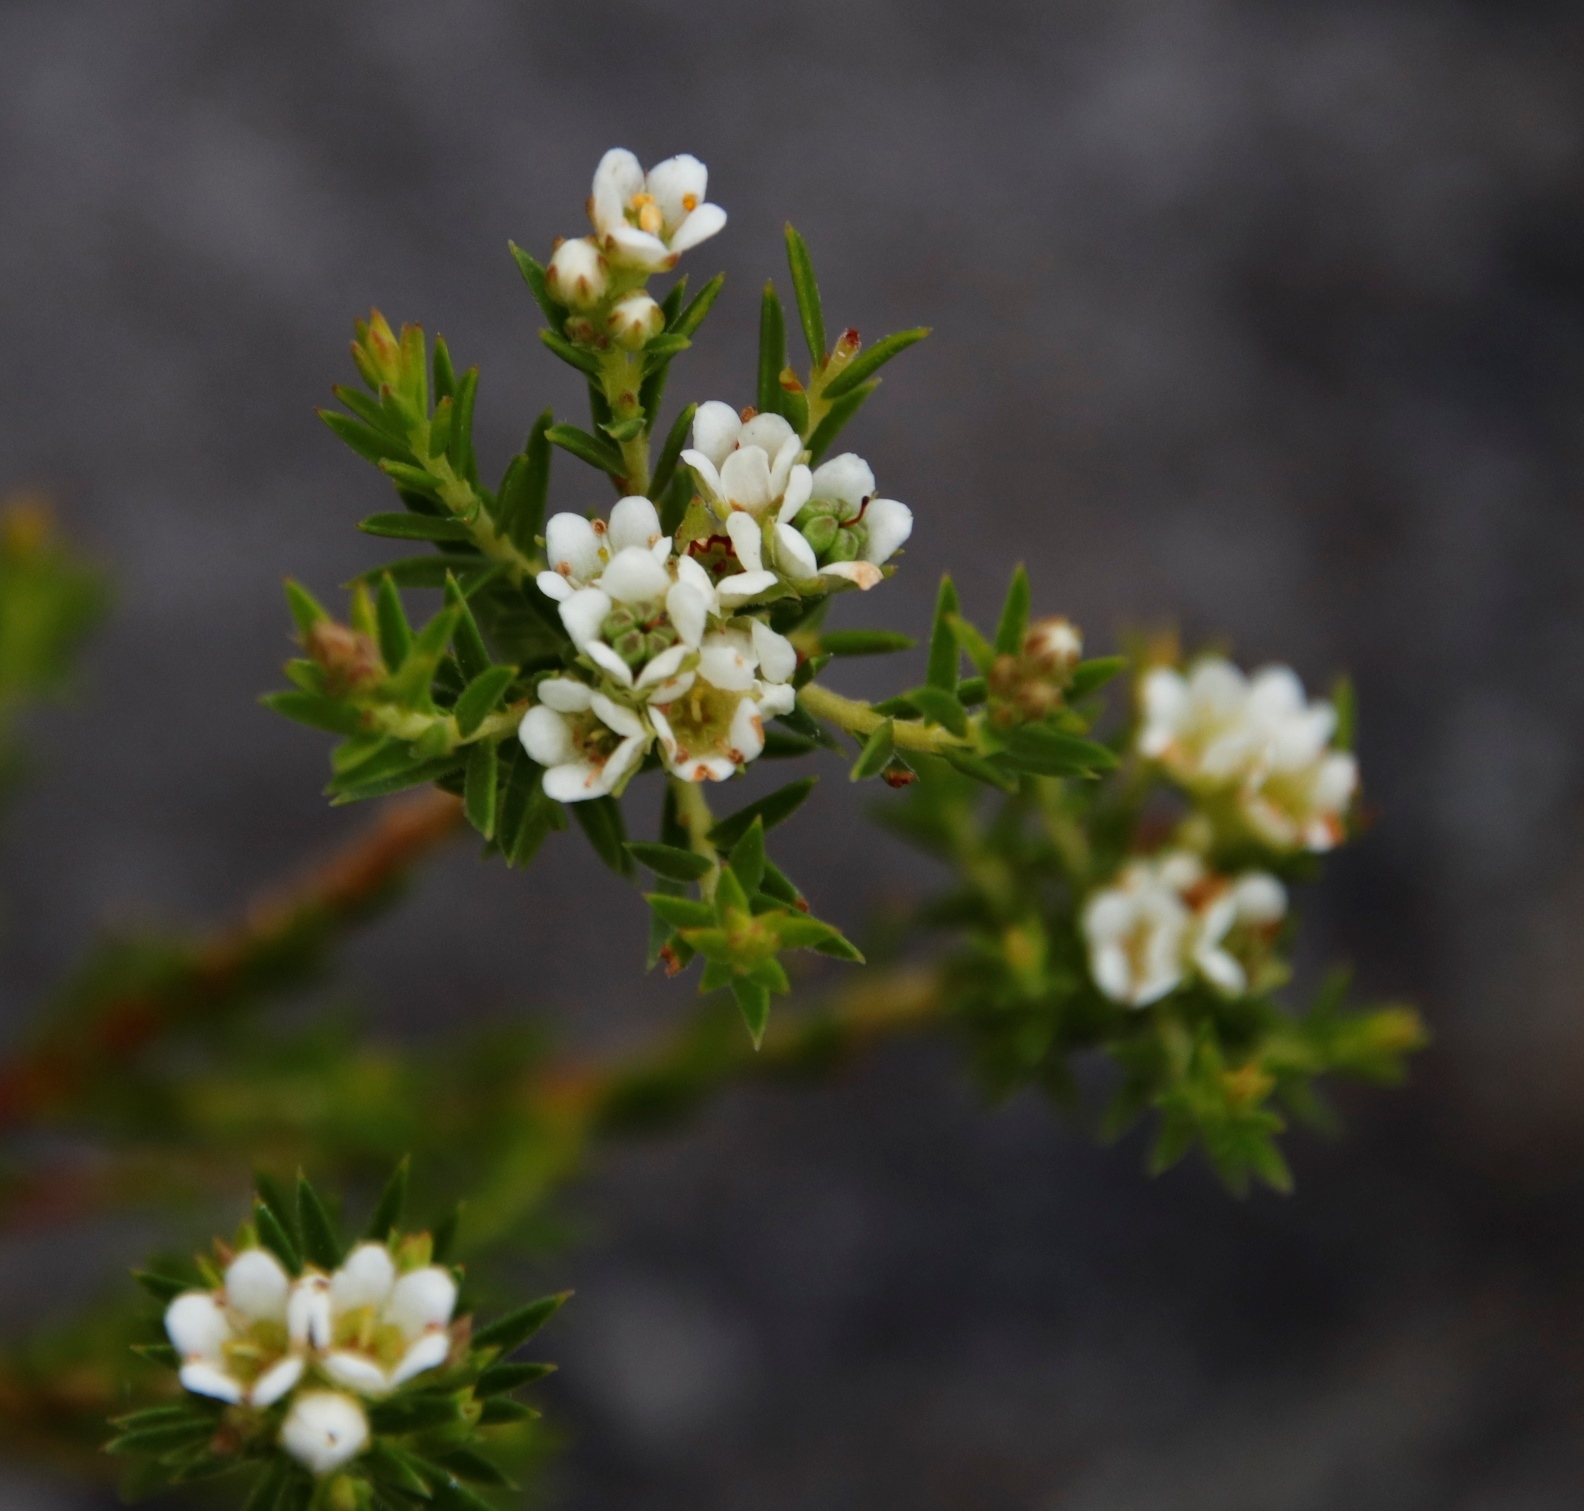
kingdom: Plantae
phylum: Tracheophyta
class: Magnoliopsida
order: Sapindales
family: Rutaceae
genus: Diosma
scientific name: Diosma hirsuta
